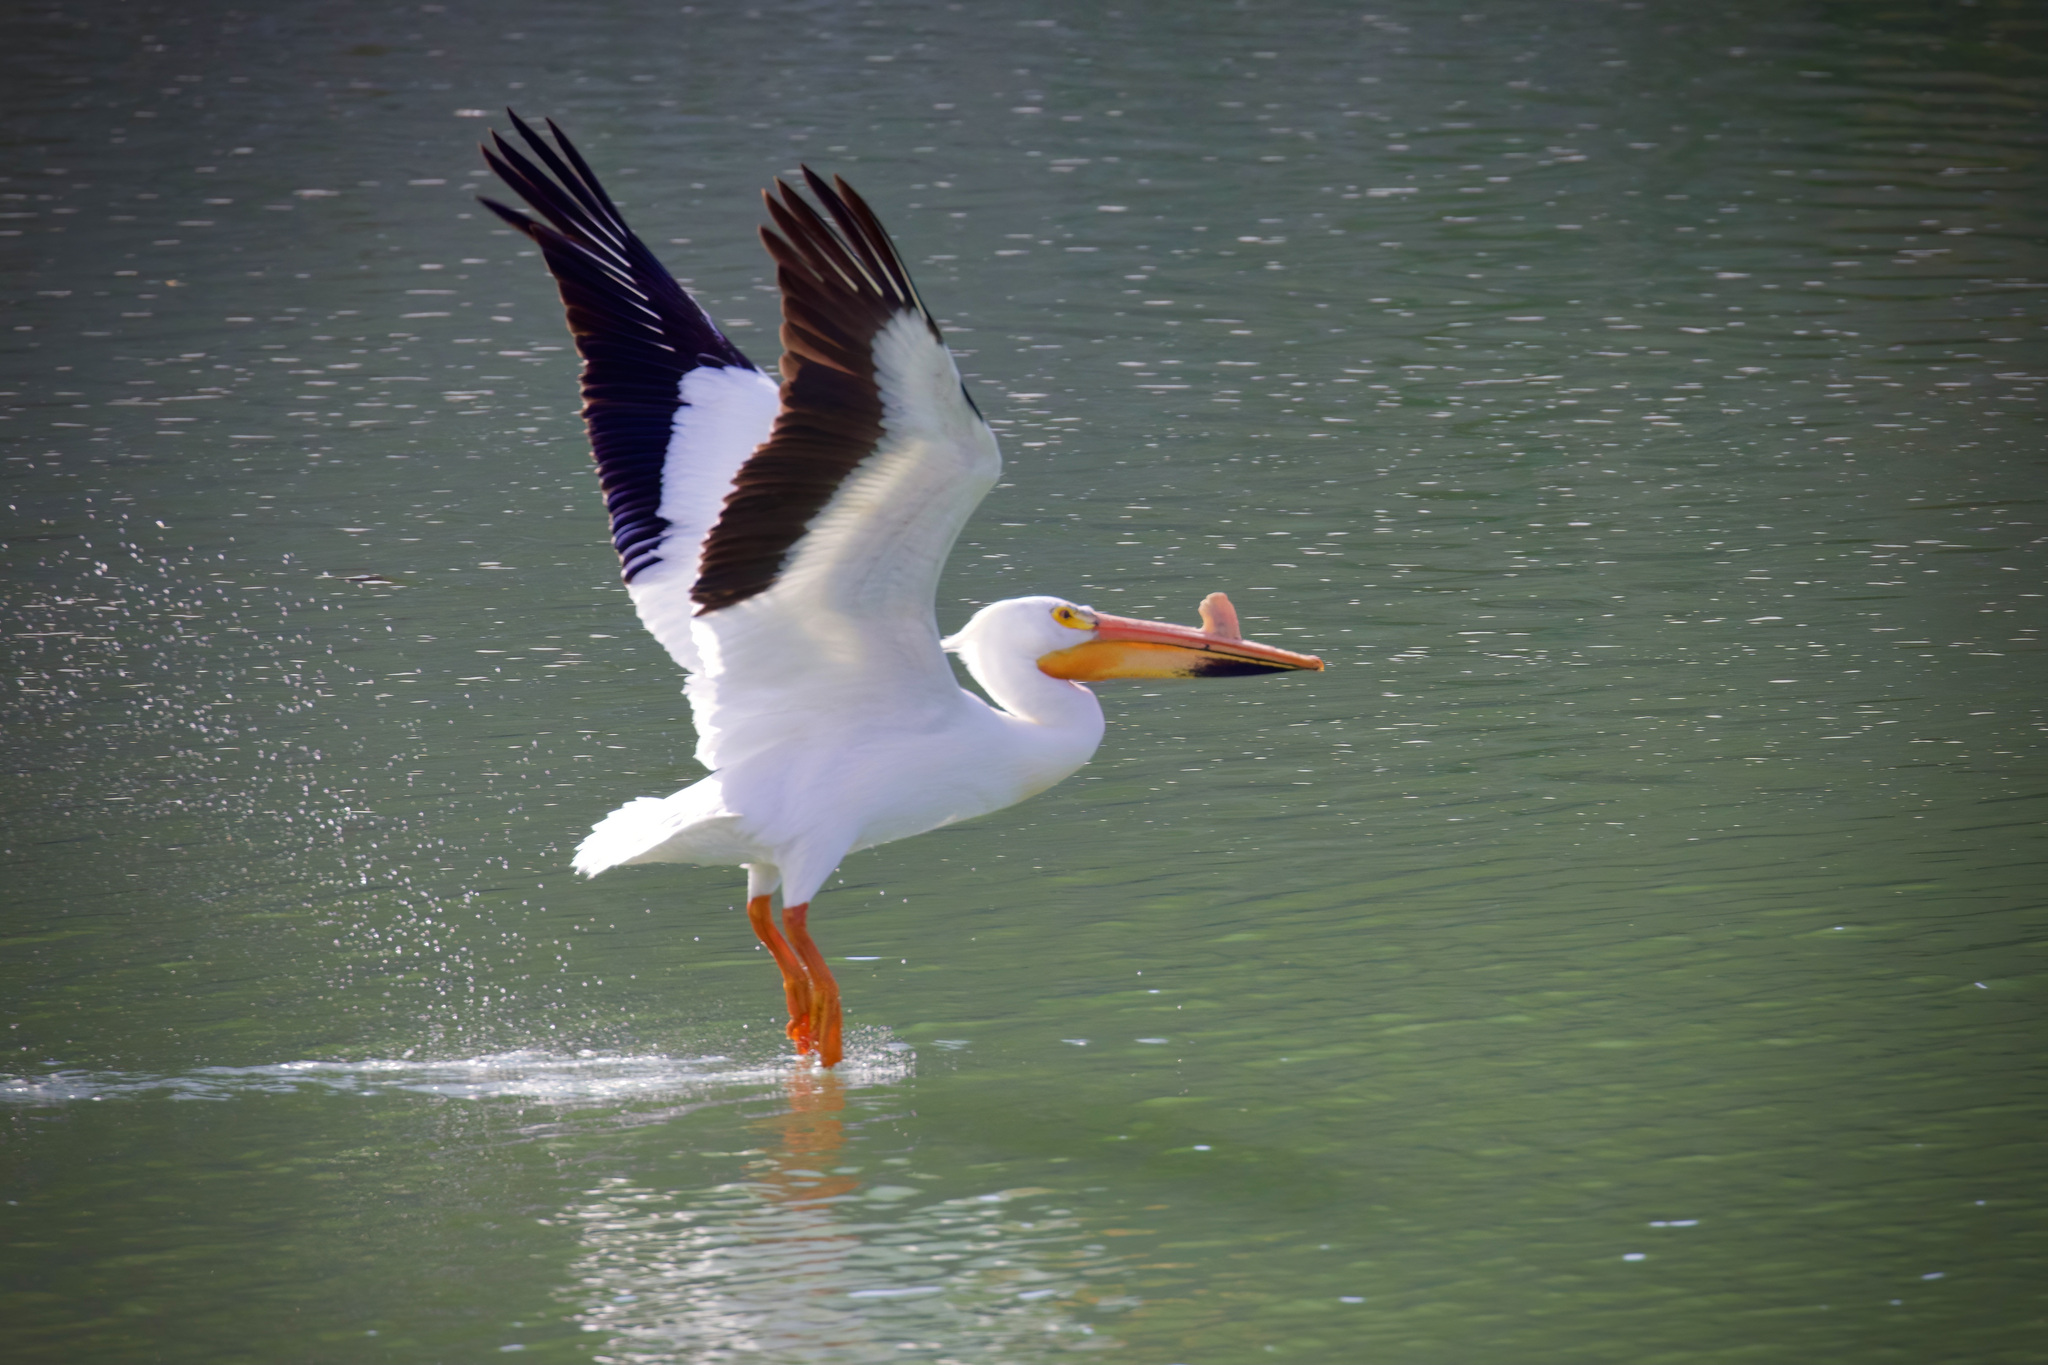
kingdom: Animalia
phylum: Chordata
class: Aves
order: Pelecaniformes
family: Pelecanidae
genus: Pelecanus
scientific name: Pelecanus erythrorhynchos
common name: American white pelican
